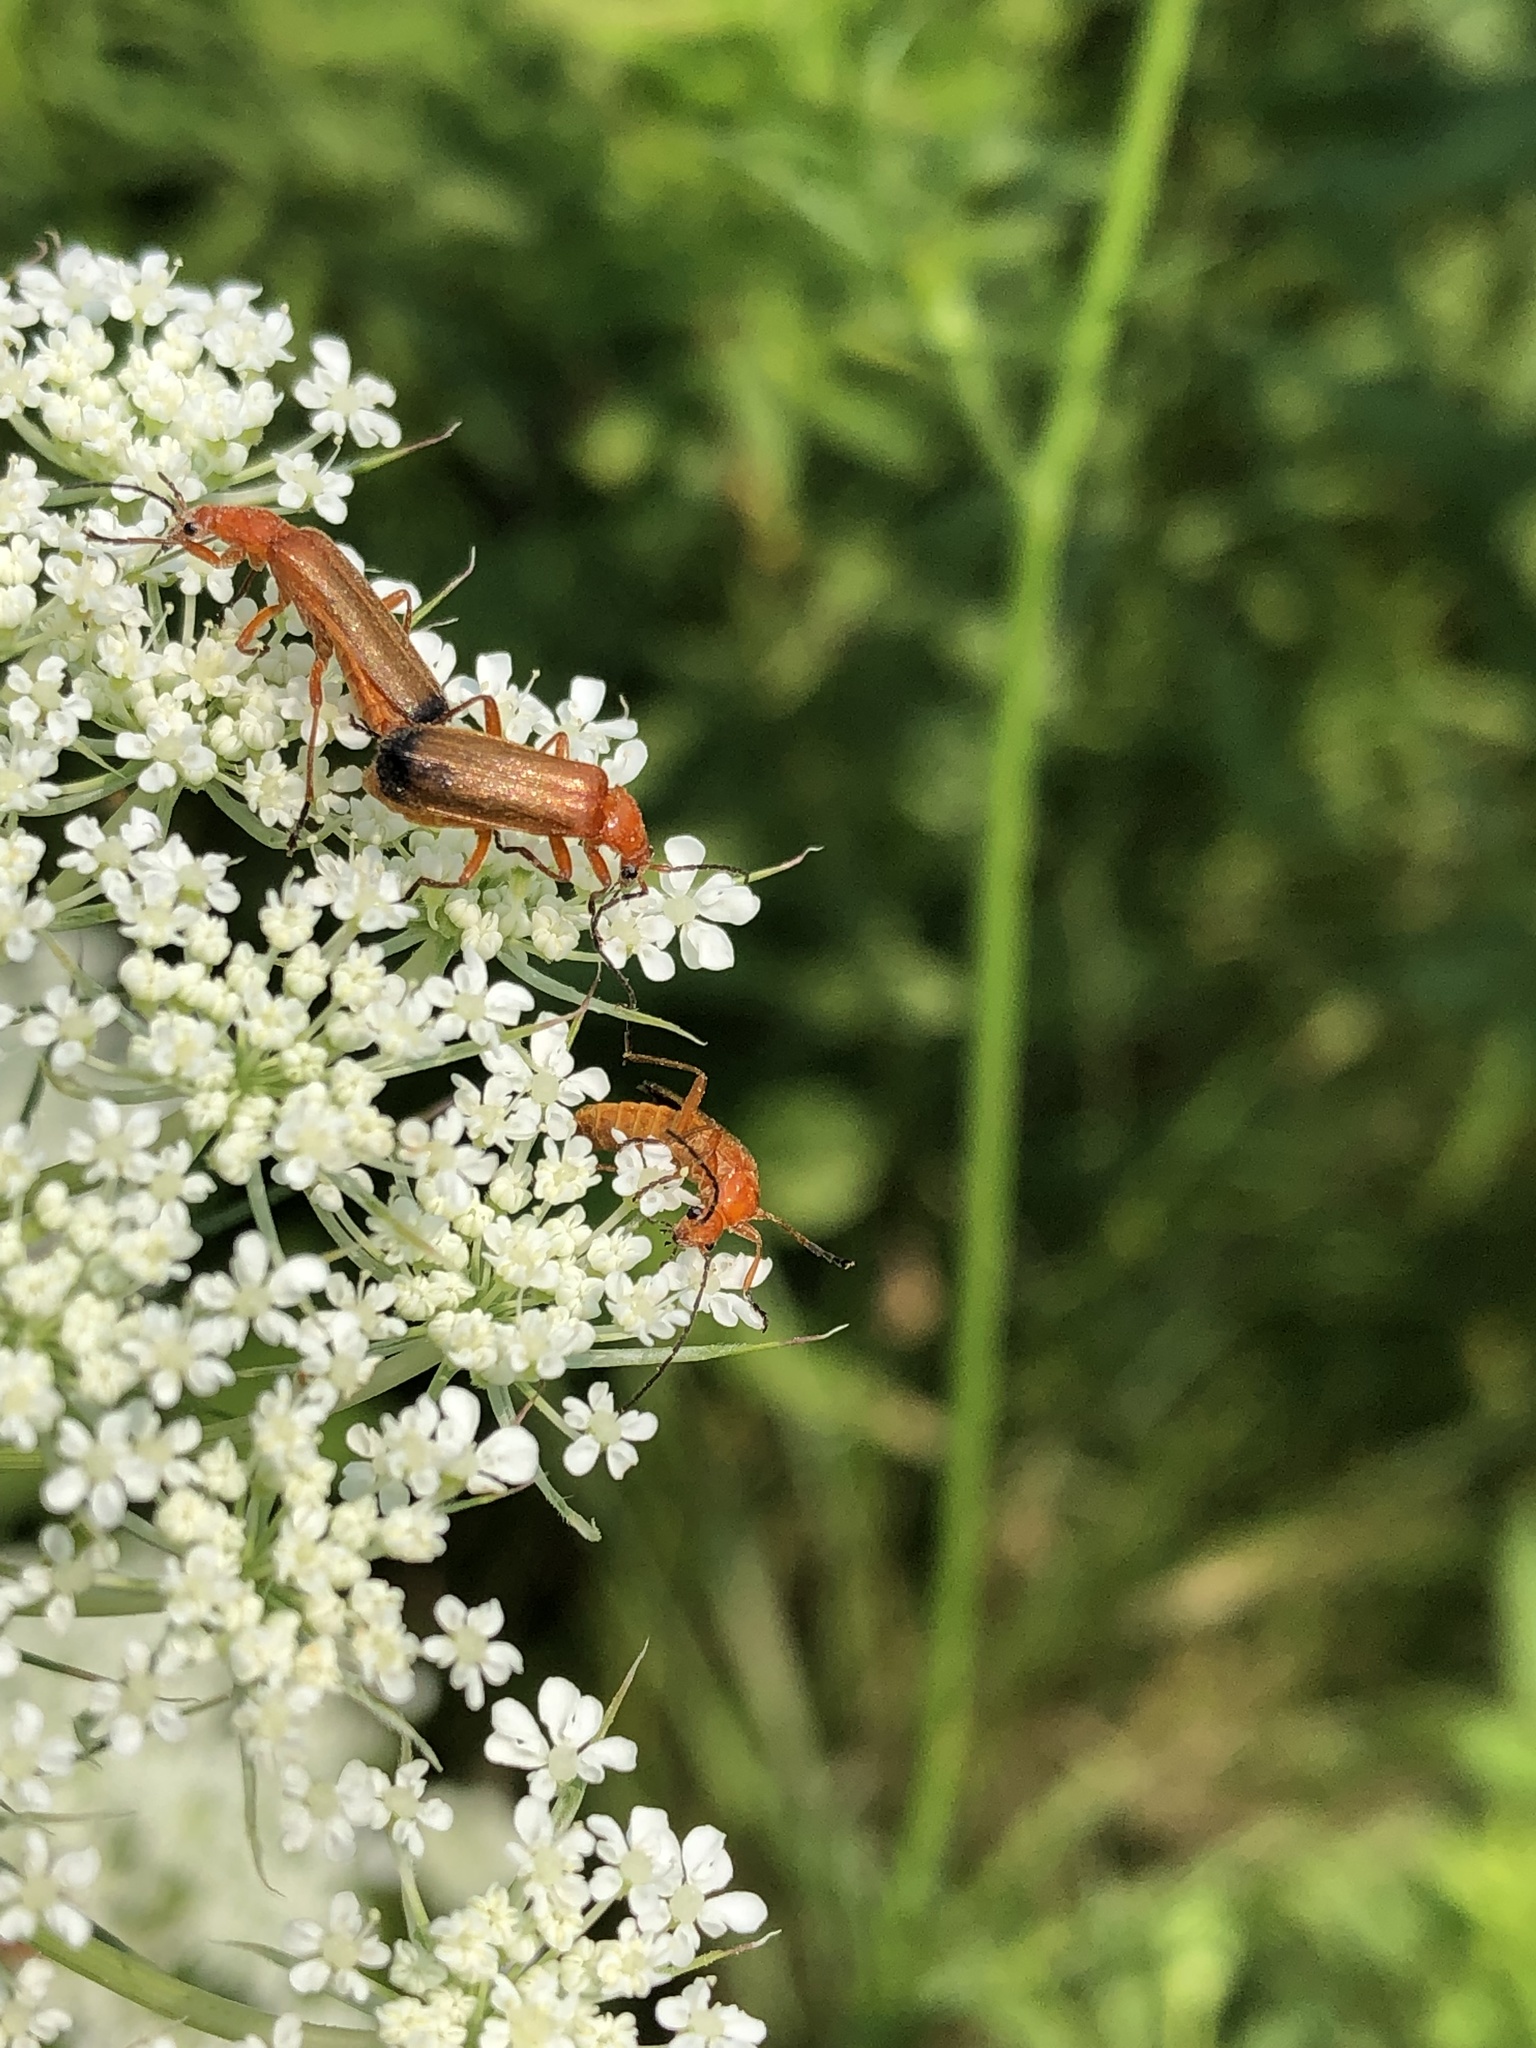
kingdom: Animalia
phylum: Arthropoda
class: Insecta
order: Coleoptera
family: Cantharidae
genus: Rhagonycha
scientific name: Rhagonycha fulva
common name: Common red soldier beetle
